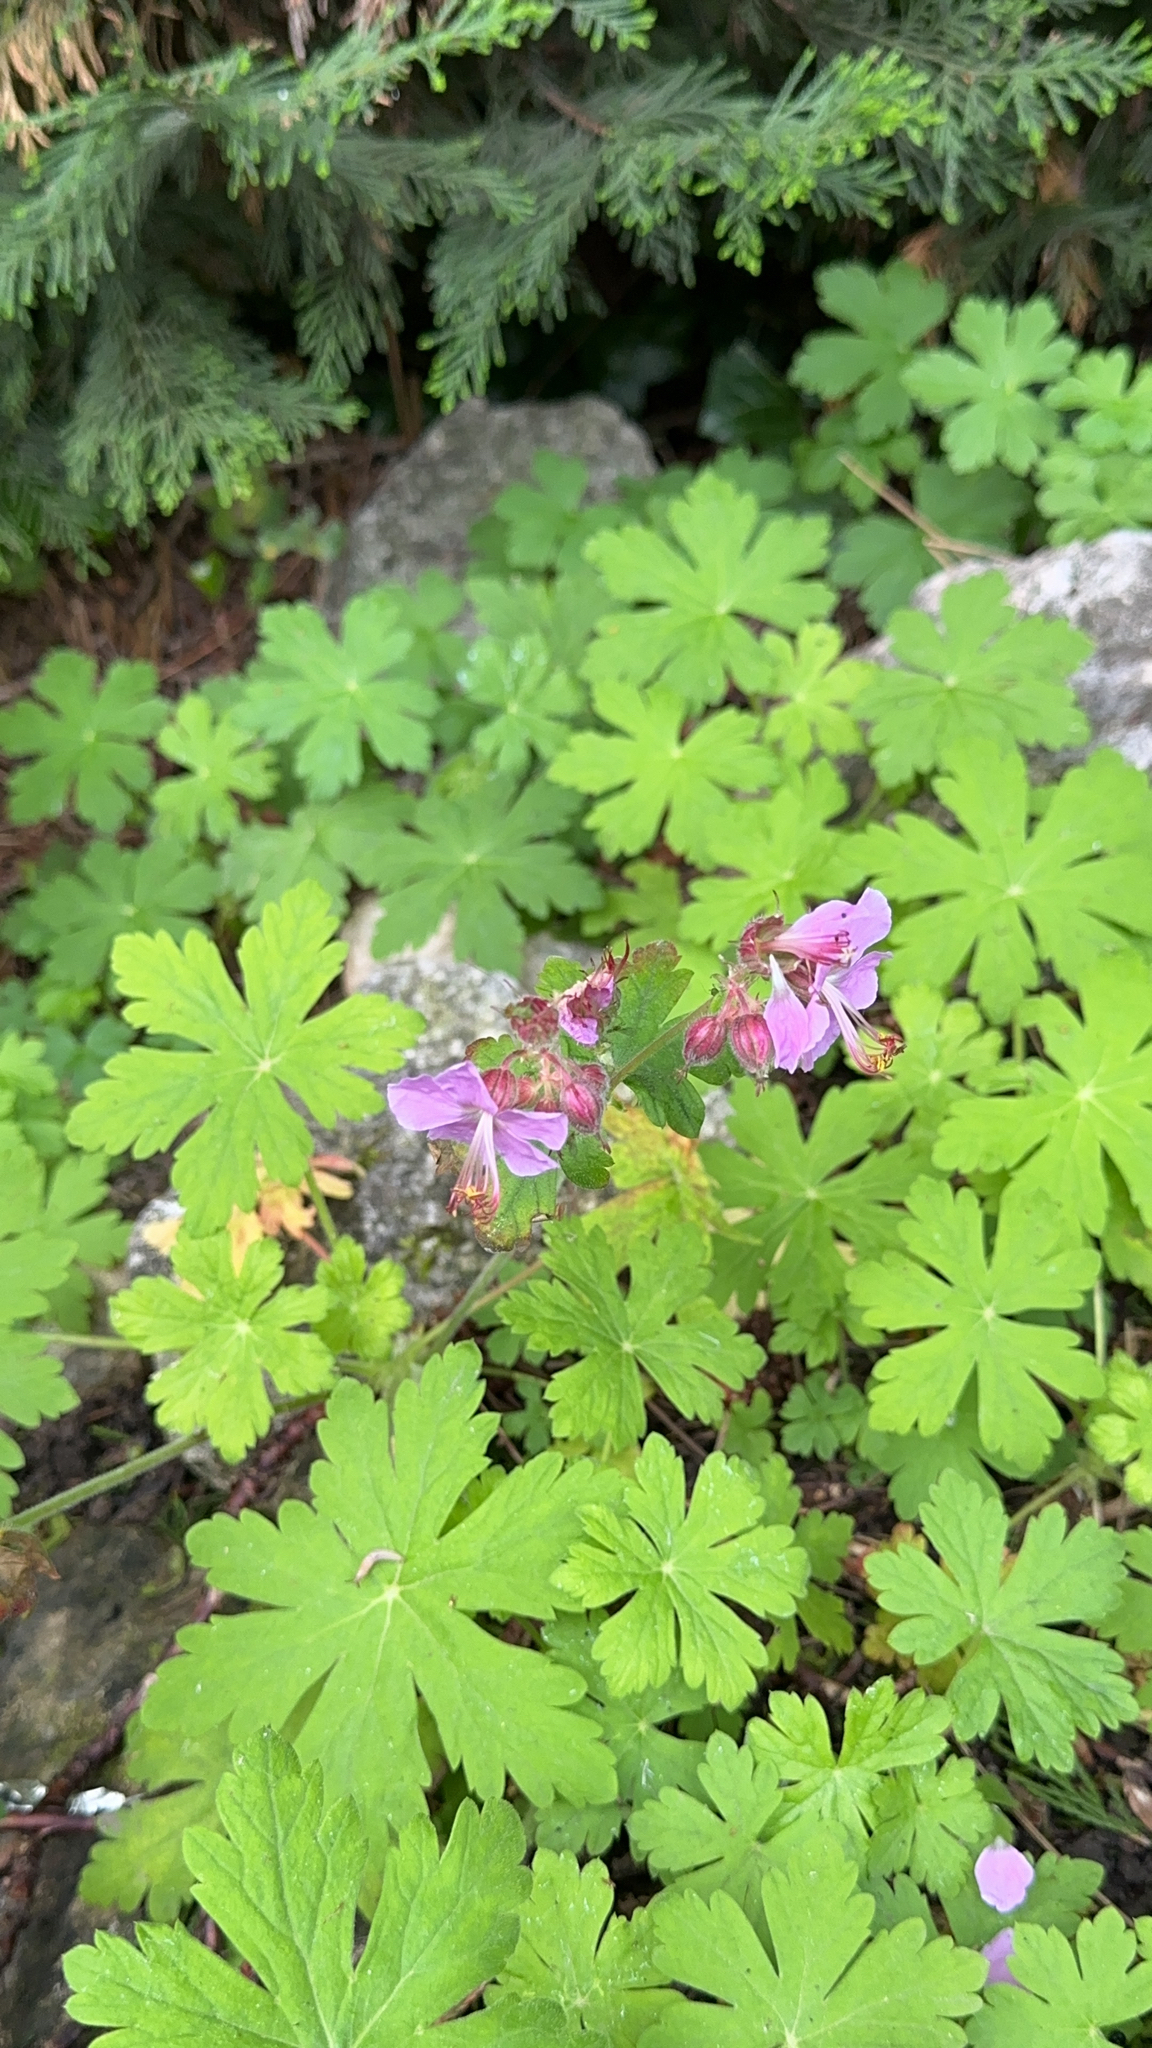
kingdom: Plantae
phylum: Tracheophyta
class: Magnoliopsida
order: Geraniales
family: Geraniaceae
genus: Geranium
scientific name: Geranium macrorrhizum
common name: Rock crane's-bill
